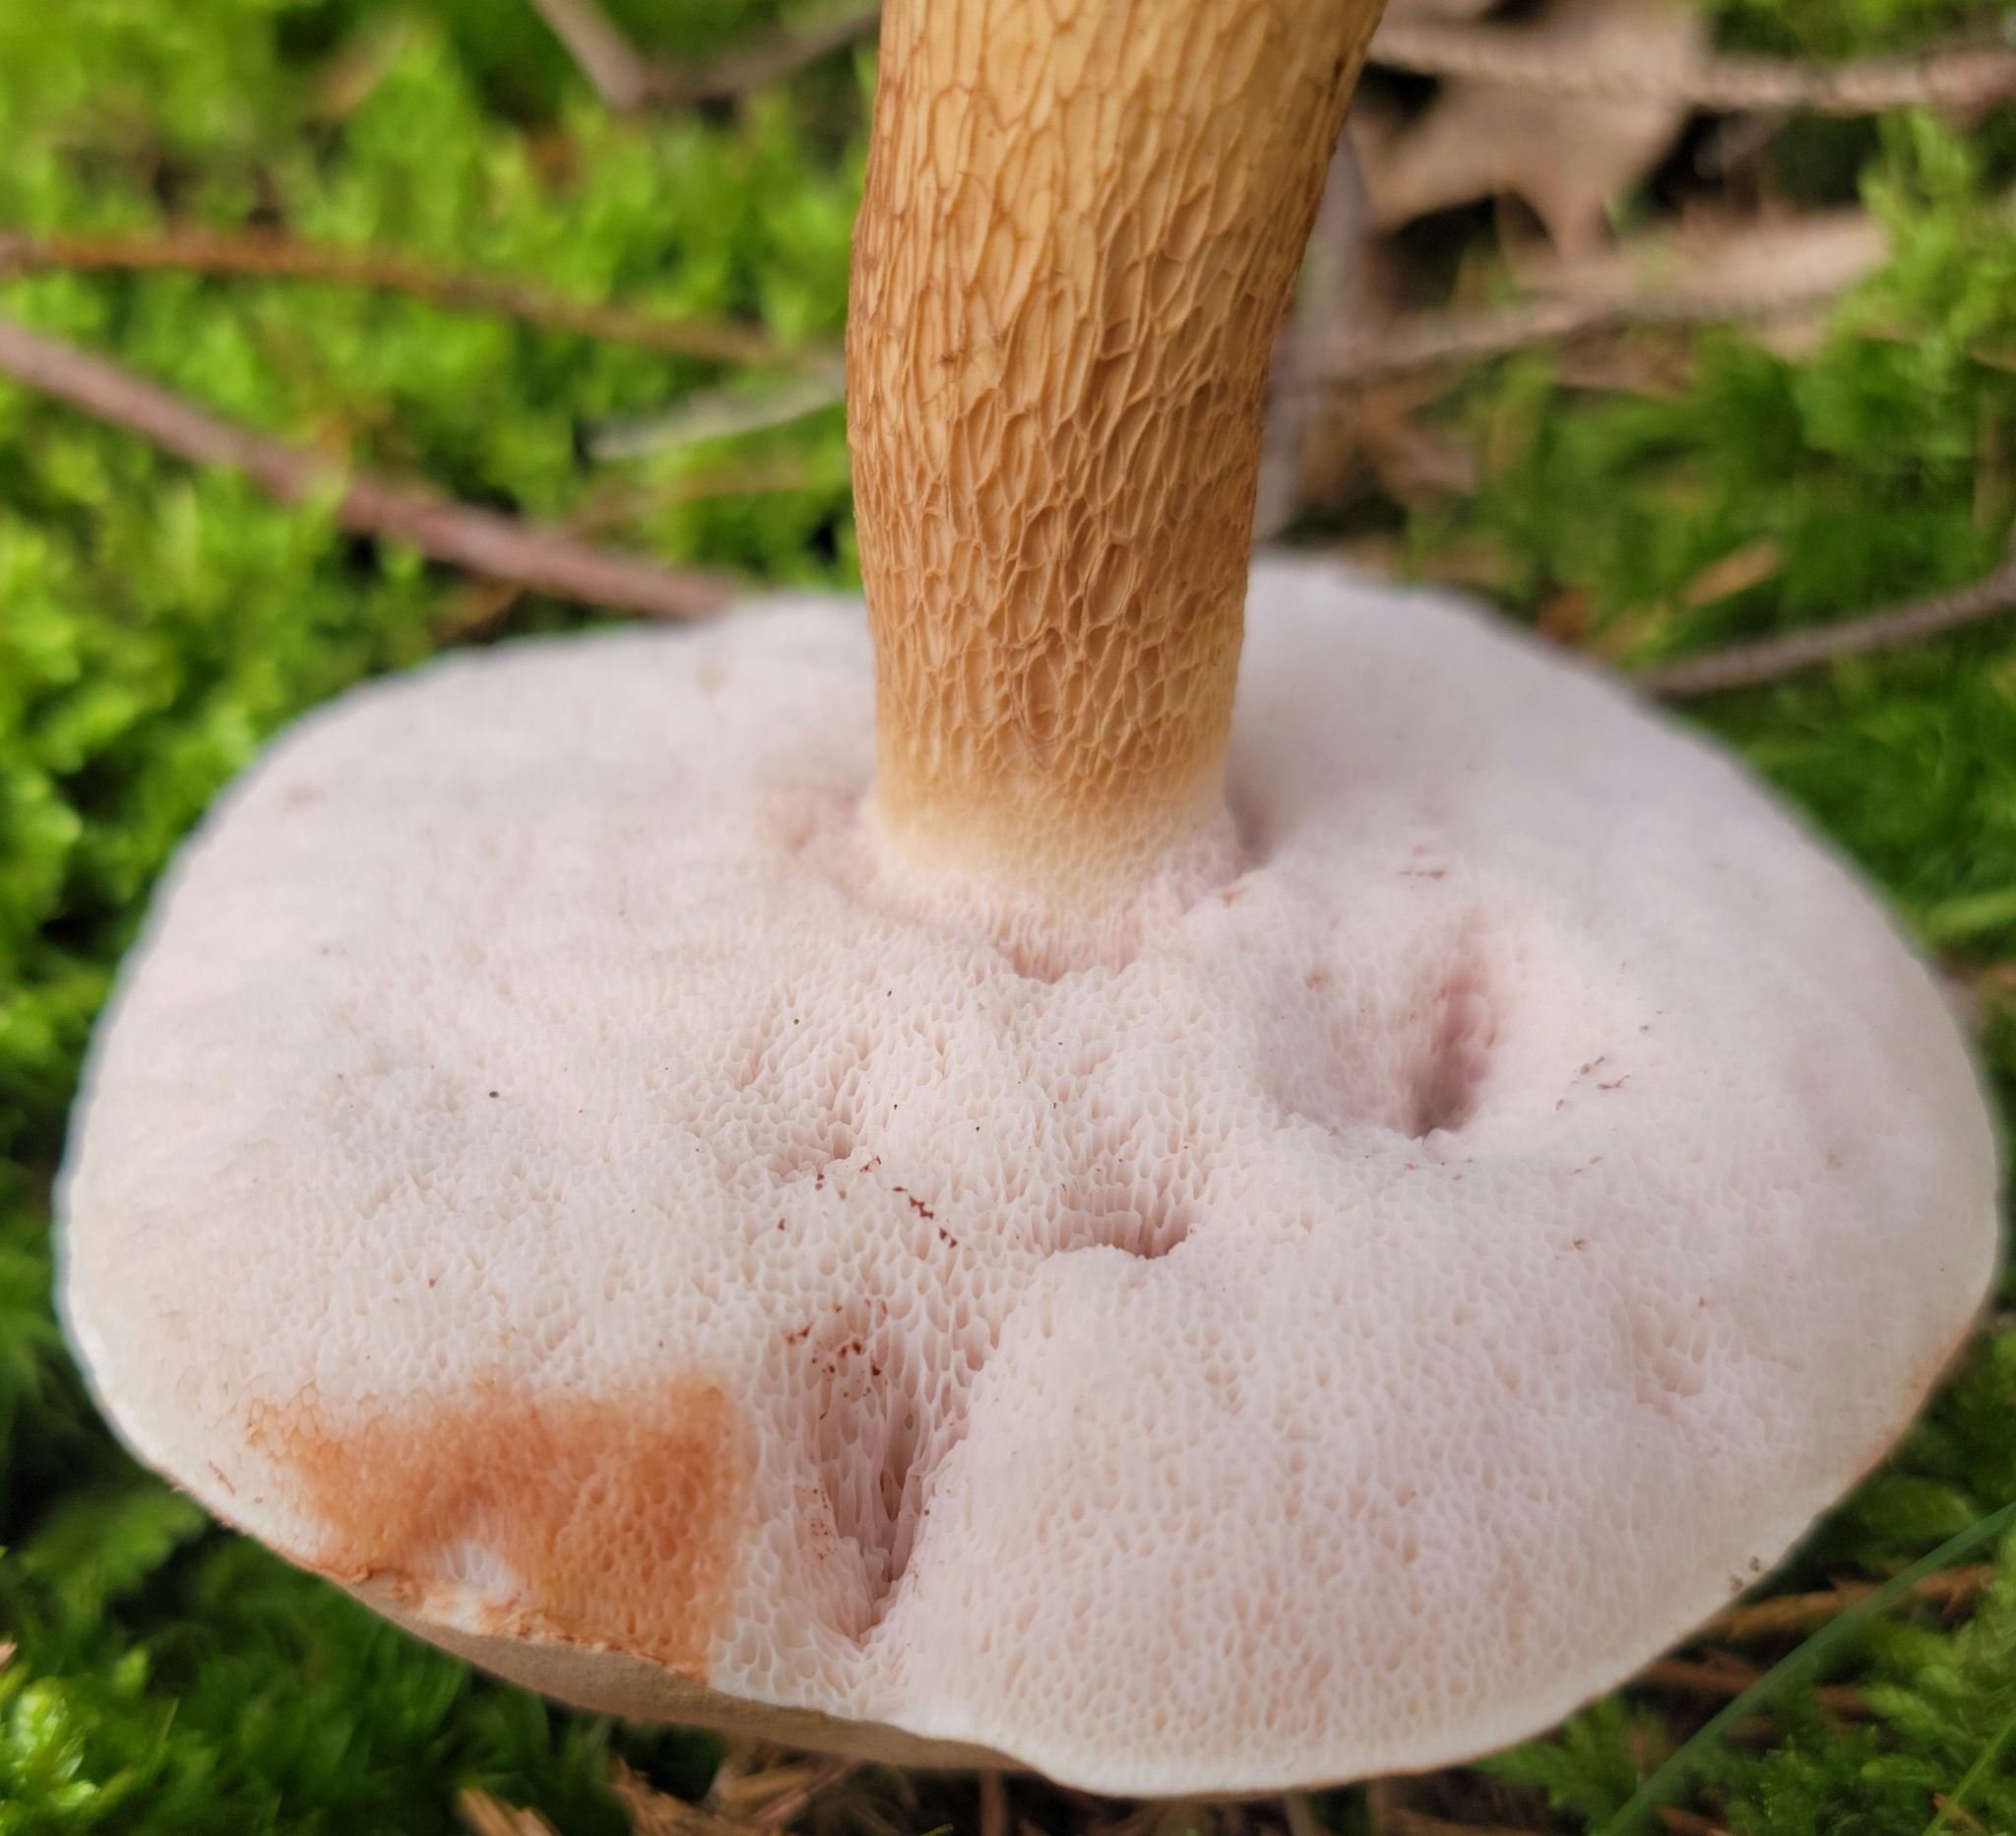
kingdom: Fungi
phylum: Basidiomycota
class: Agaricomycetes
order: Boletales
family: Boletaceae
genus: Tylopilus
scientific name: Tylopilus felleus
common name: Bitter bolete
